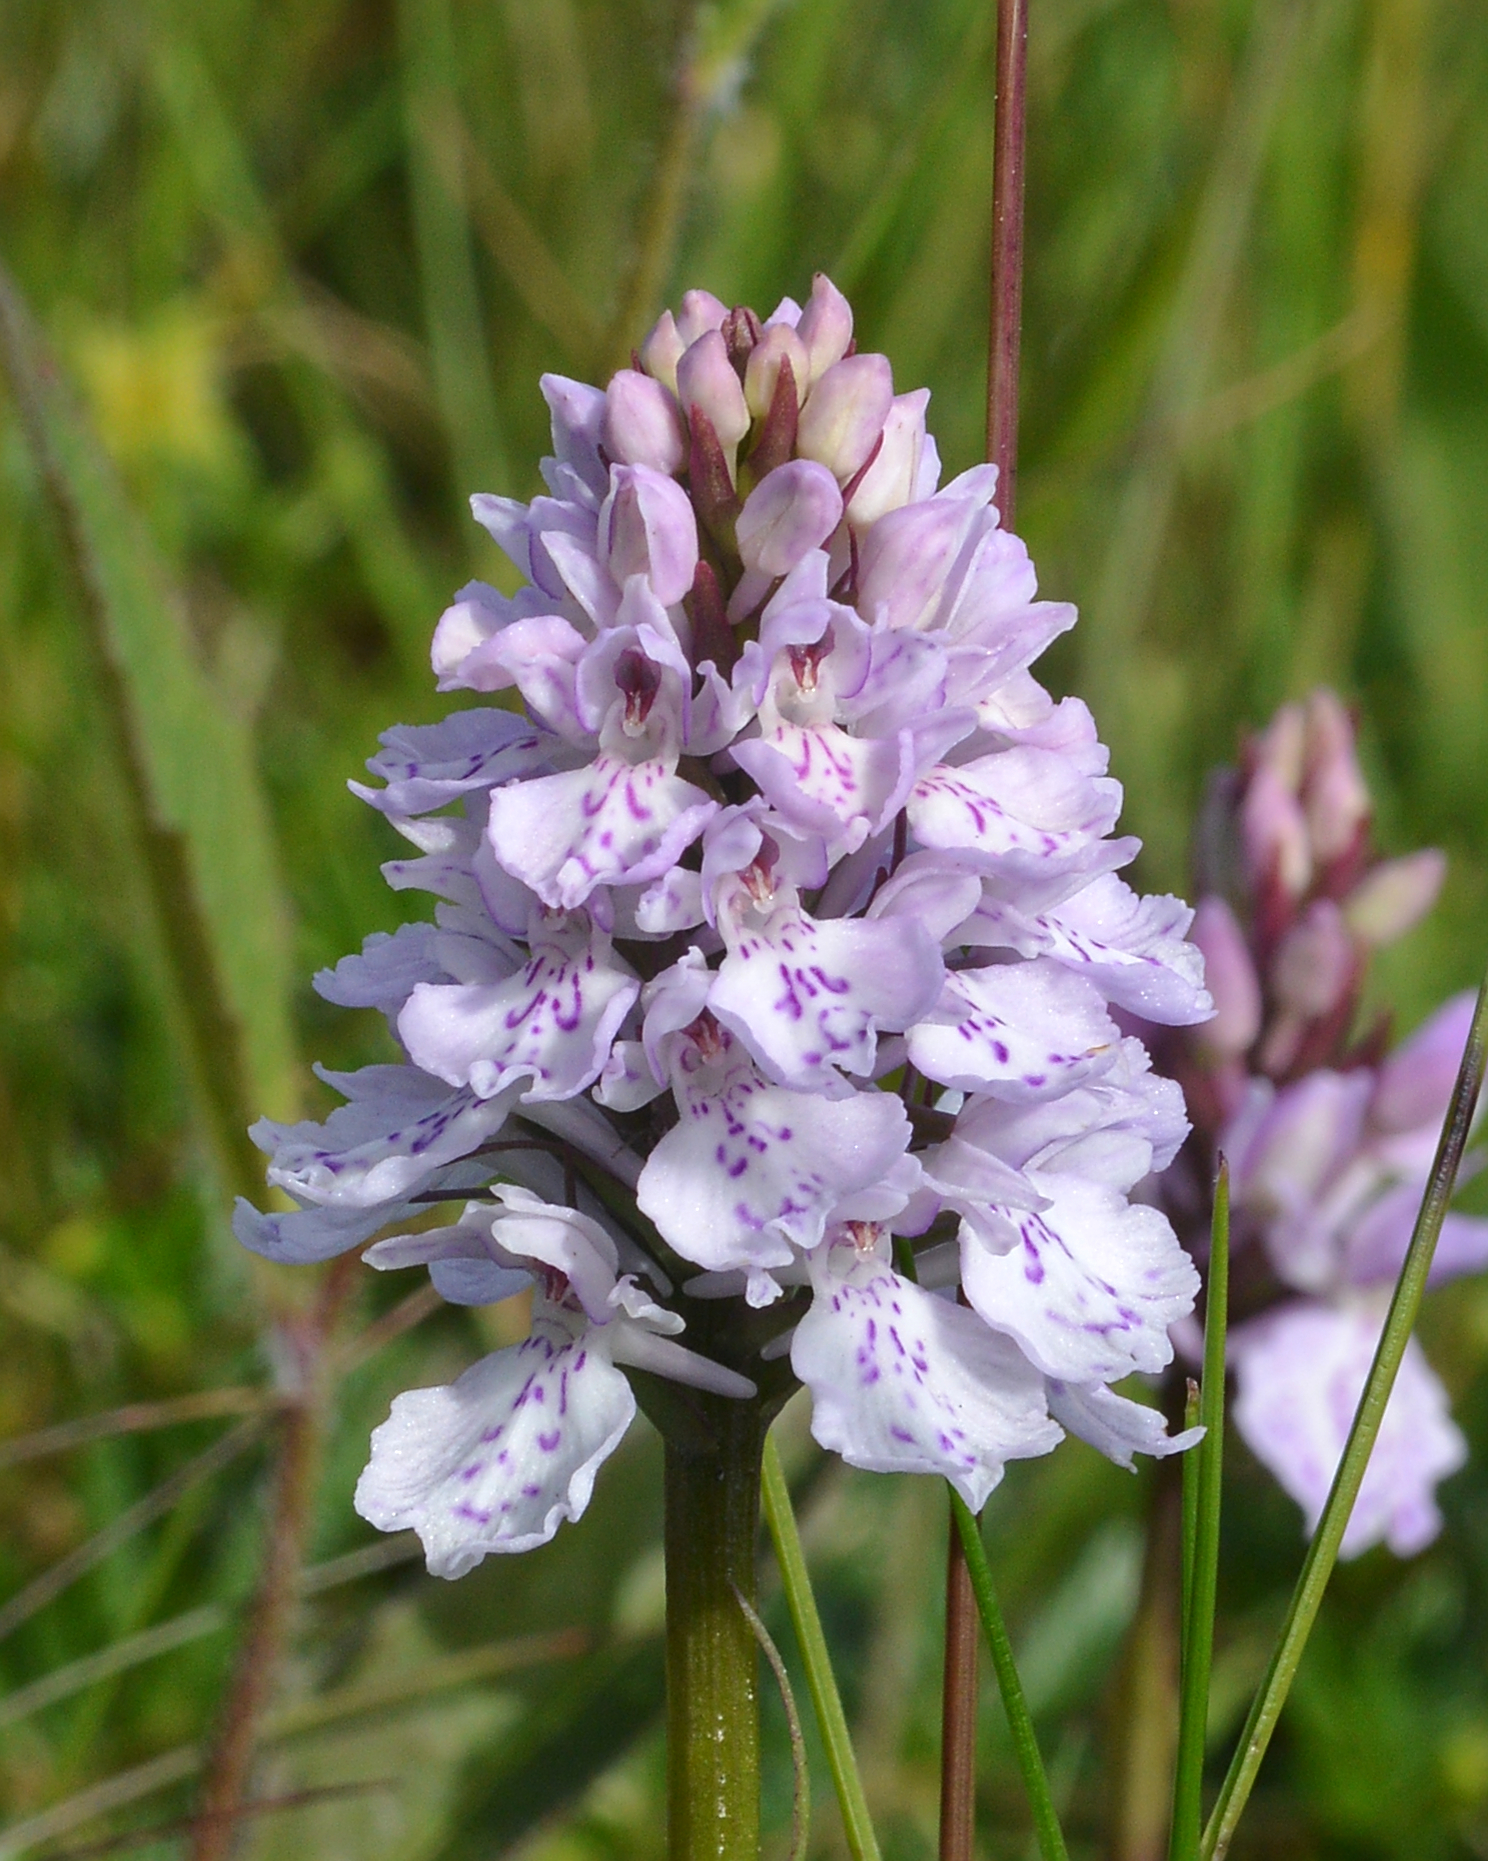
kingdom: Plantae
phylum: Tracheophyta
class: Liliopsida
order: Asparagales
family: Orchidaceae
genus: Dactylorhiza
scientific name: Dactylorhiza maculata
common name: Heath spotted-orchid
